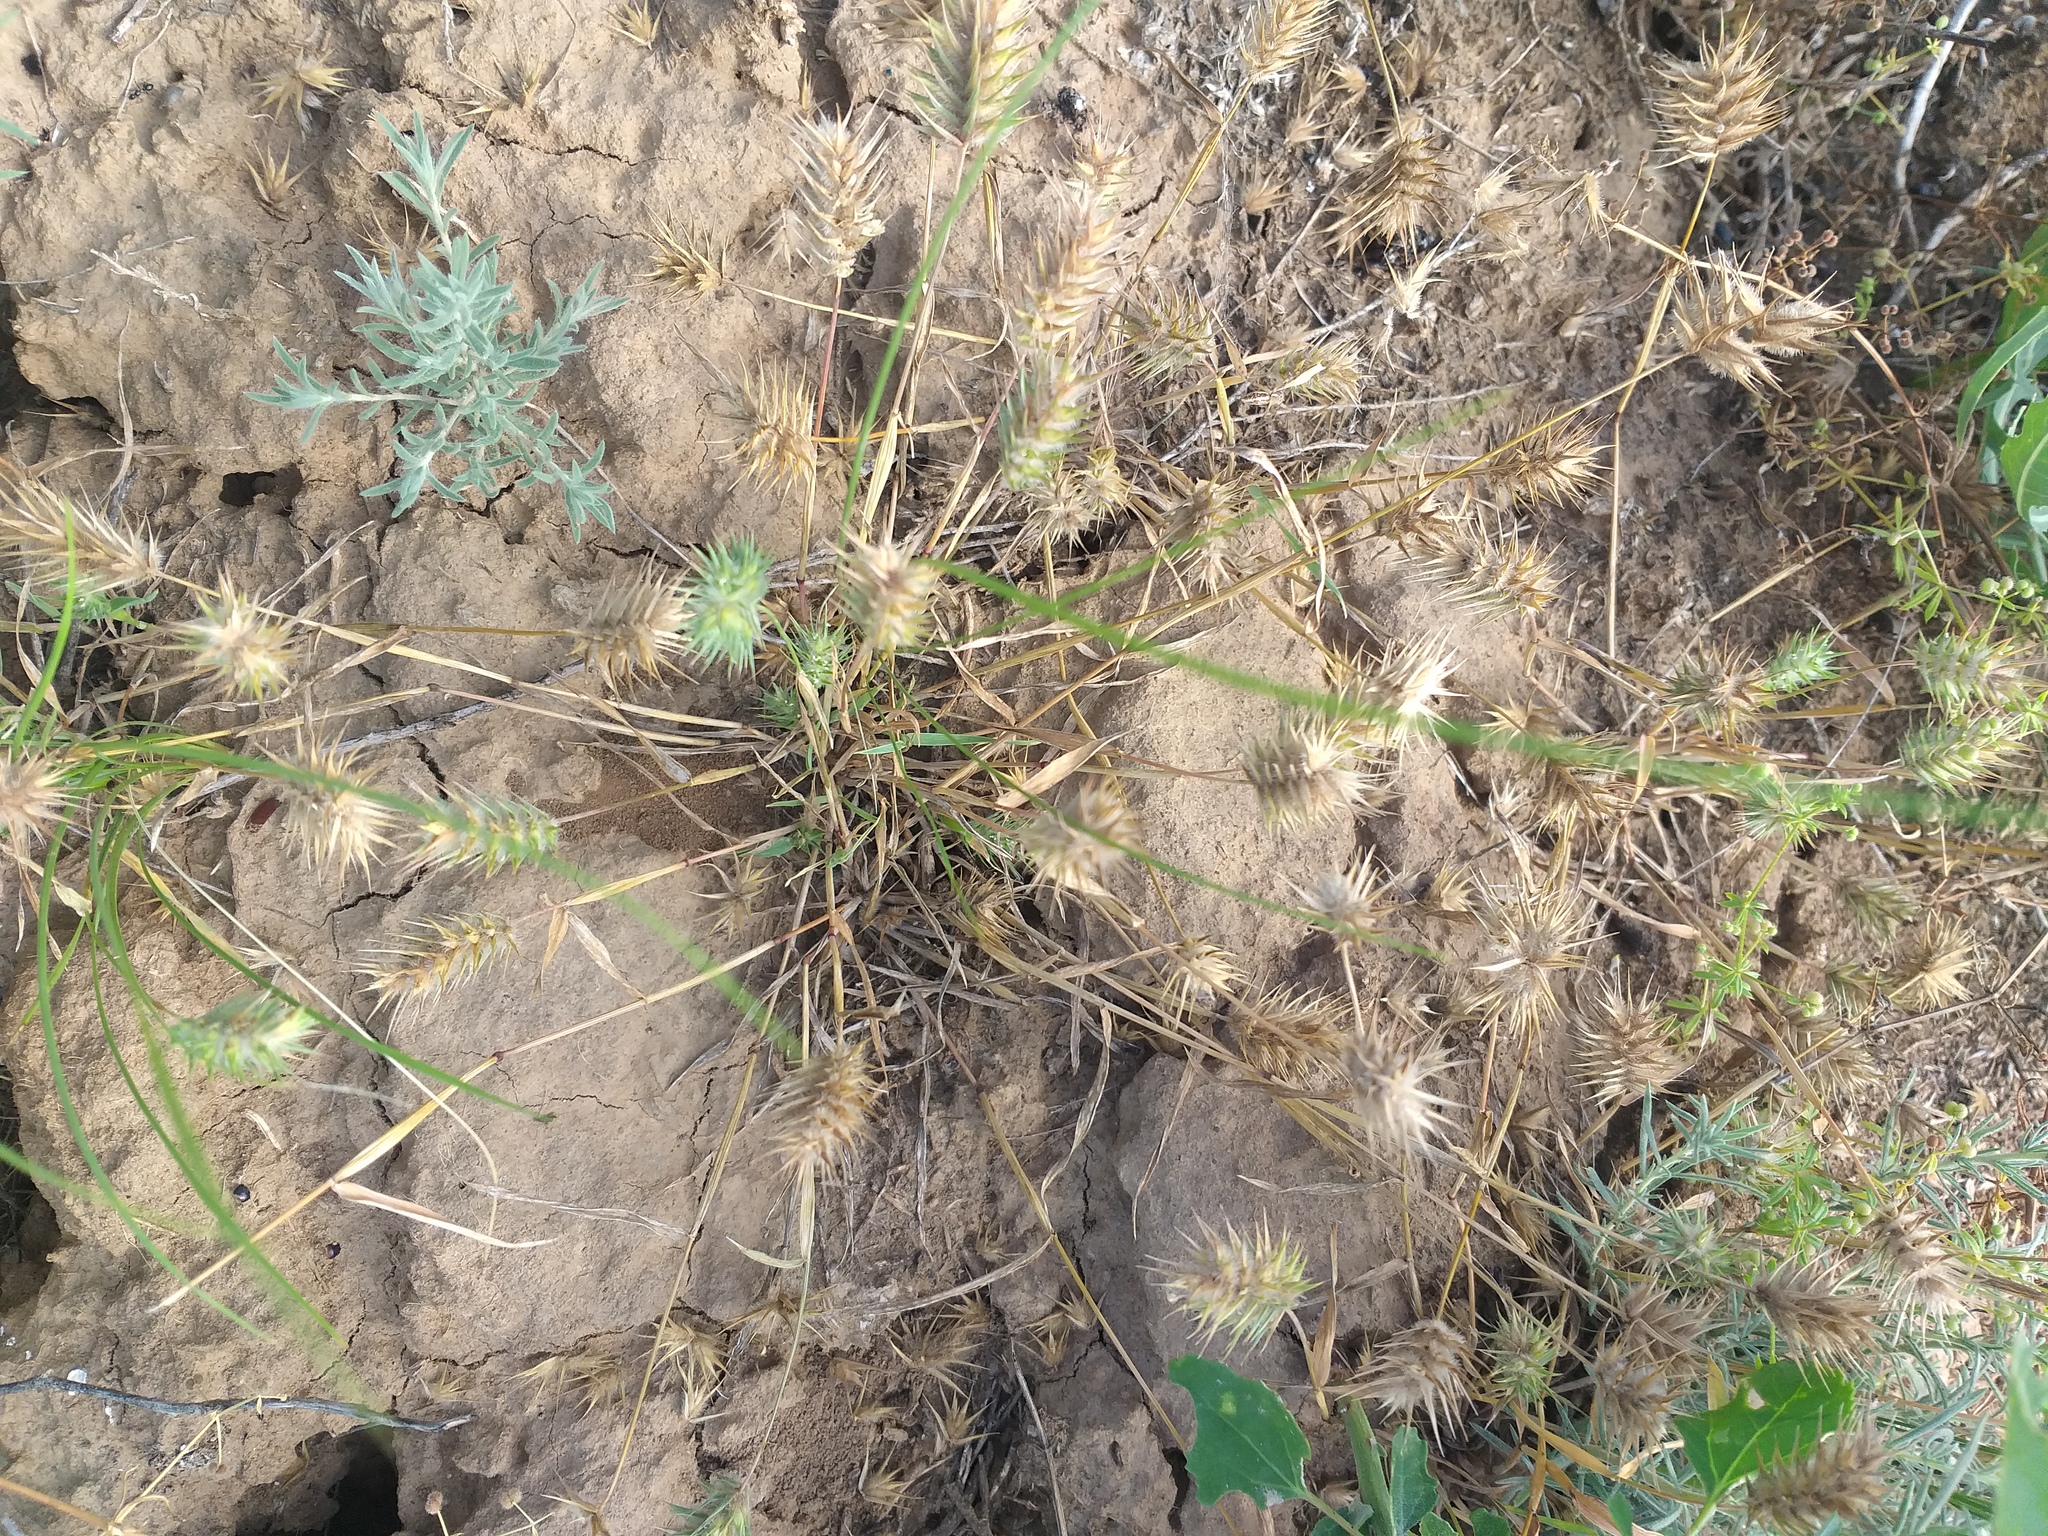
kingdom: Plantae
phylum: Tracheophyta
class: Liliopsida
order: Poales
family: Poaceae
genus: Eremopyrum
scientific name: Eremopyrum orientale
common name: Oriental false wheatgrass
